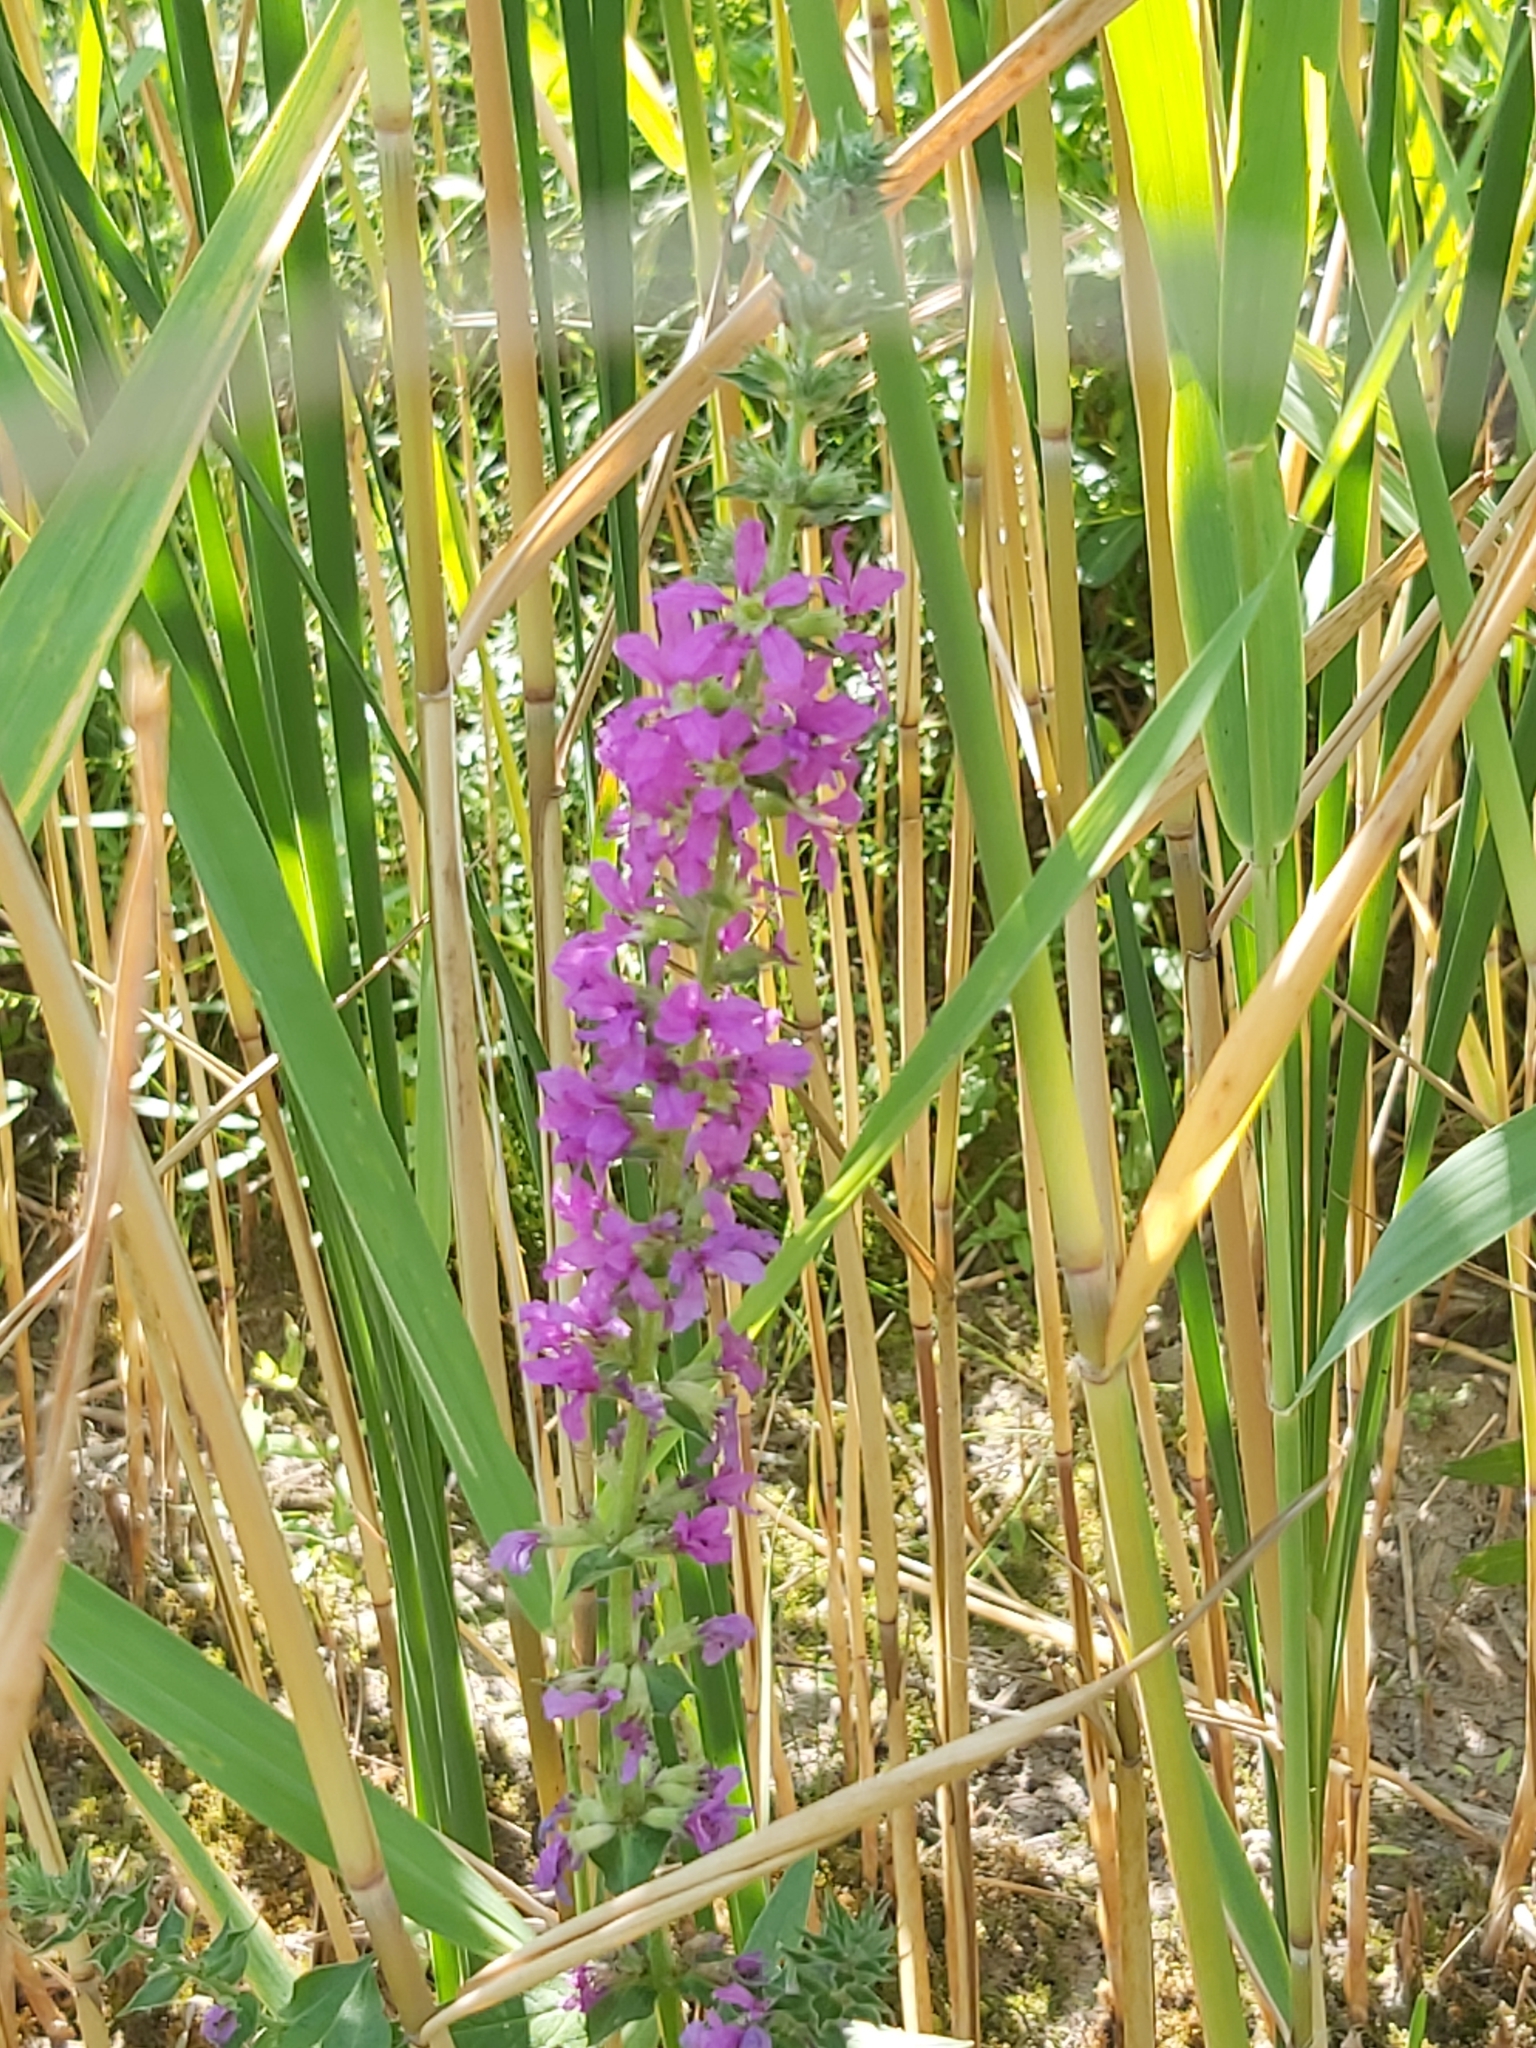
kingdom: Plantae
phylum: Tracheophyta
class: Magnoliopsida
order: Myrtales
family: Lythraceae
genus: Lythrum
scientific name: Lythrum salicaria
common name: Purple loosestrife
